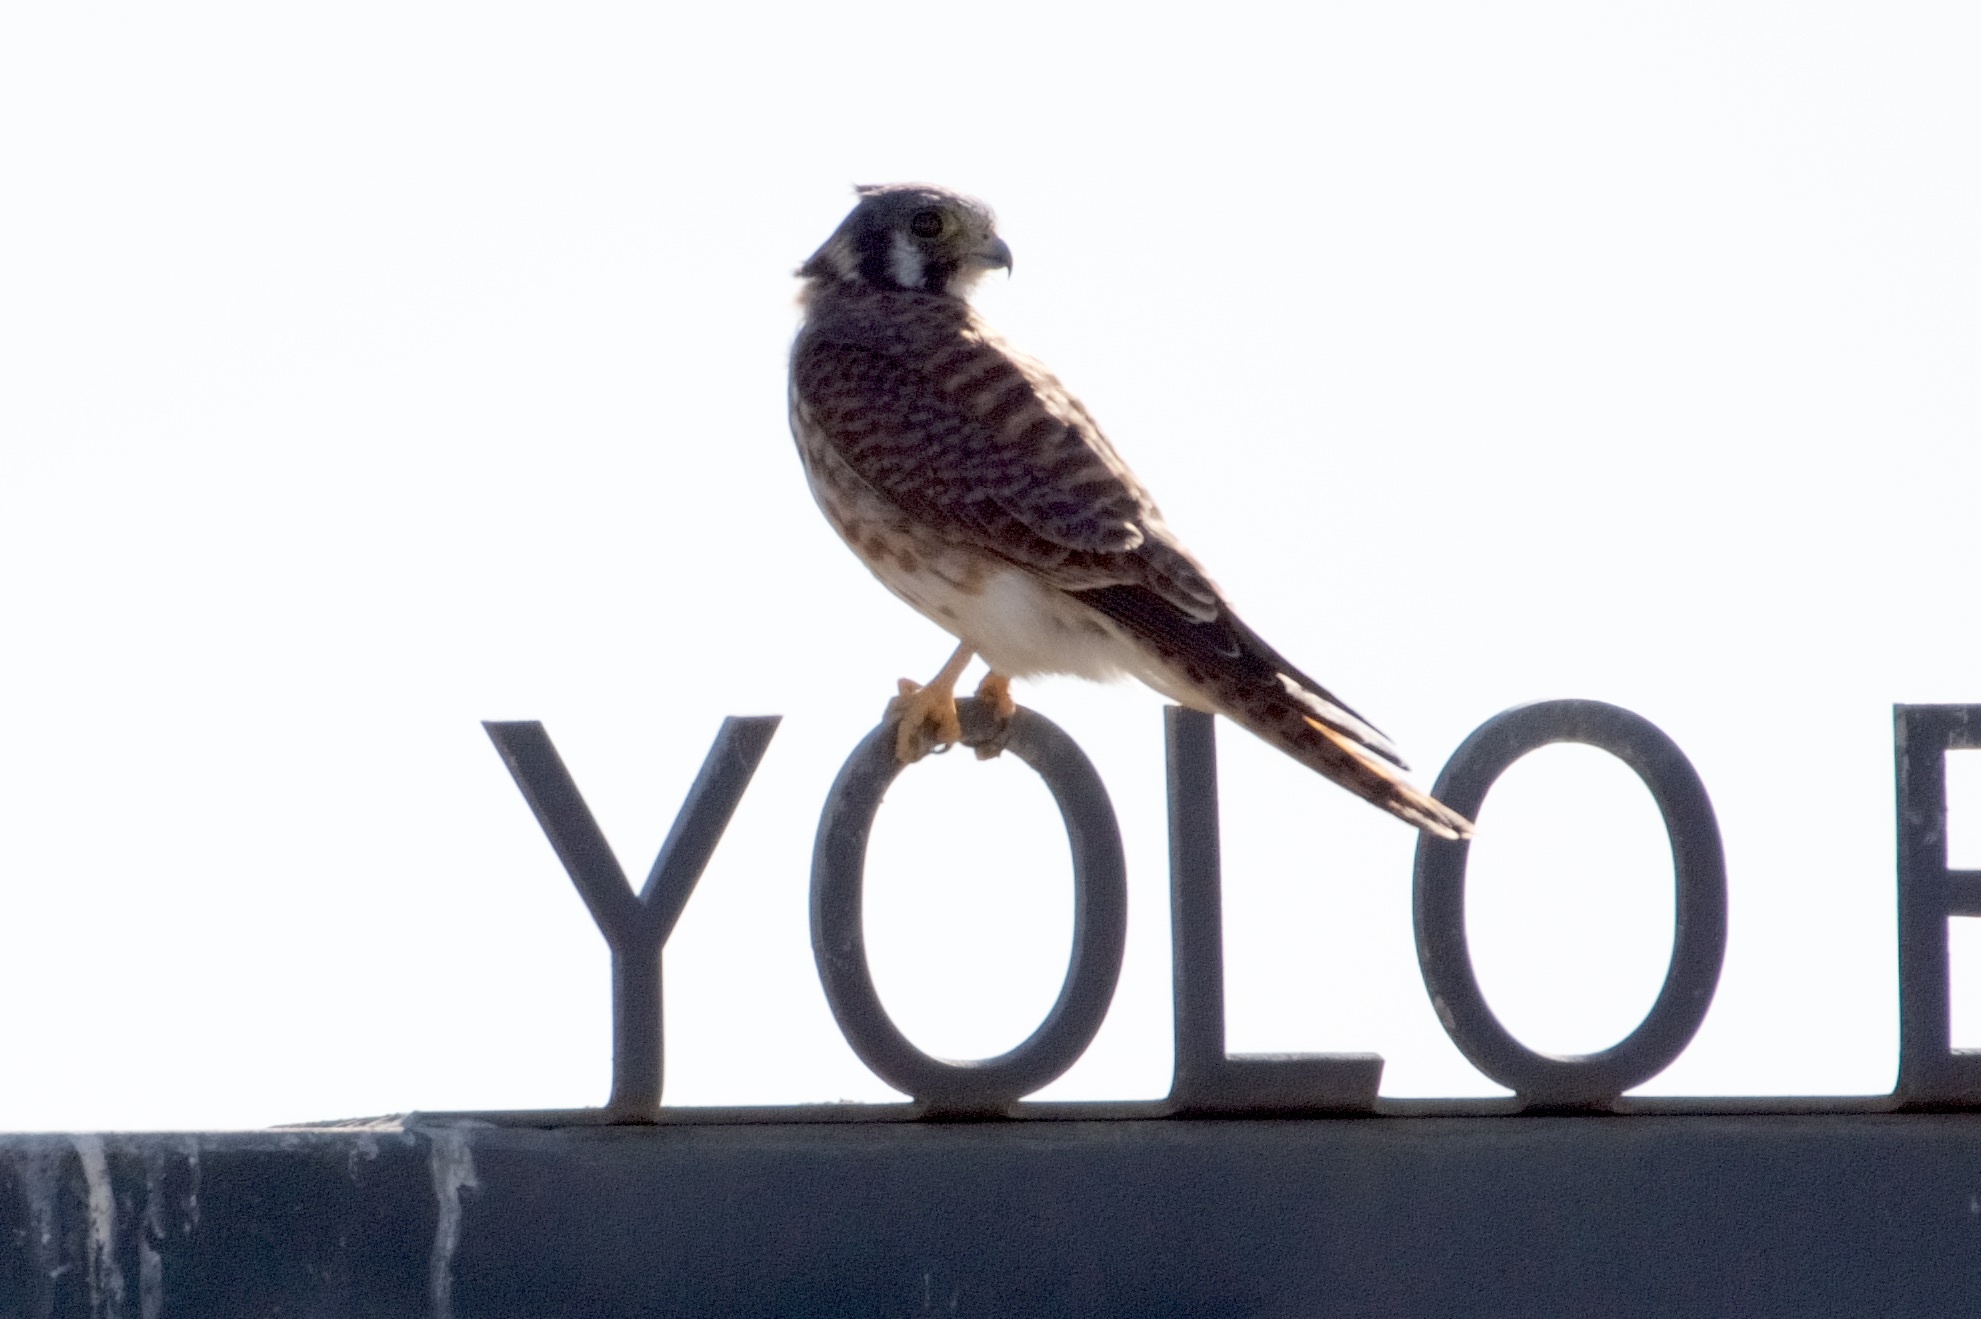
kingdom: Animalia
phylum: Chordata
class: Aves
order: Falconiformes
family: Falconidae
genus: Falco
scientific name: Falco sparverius
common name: American kestrel
